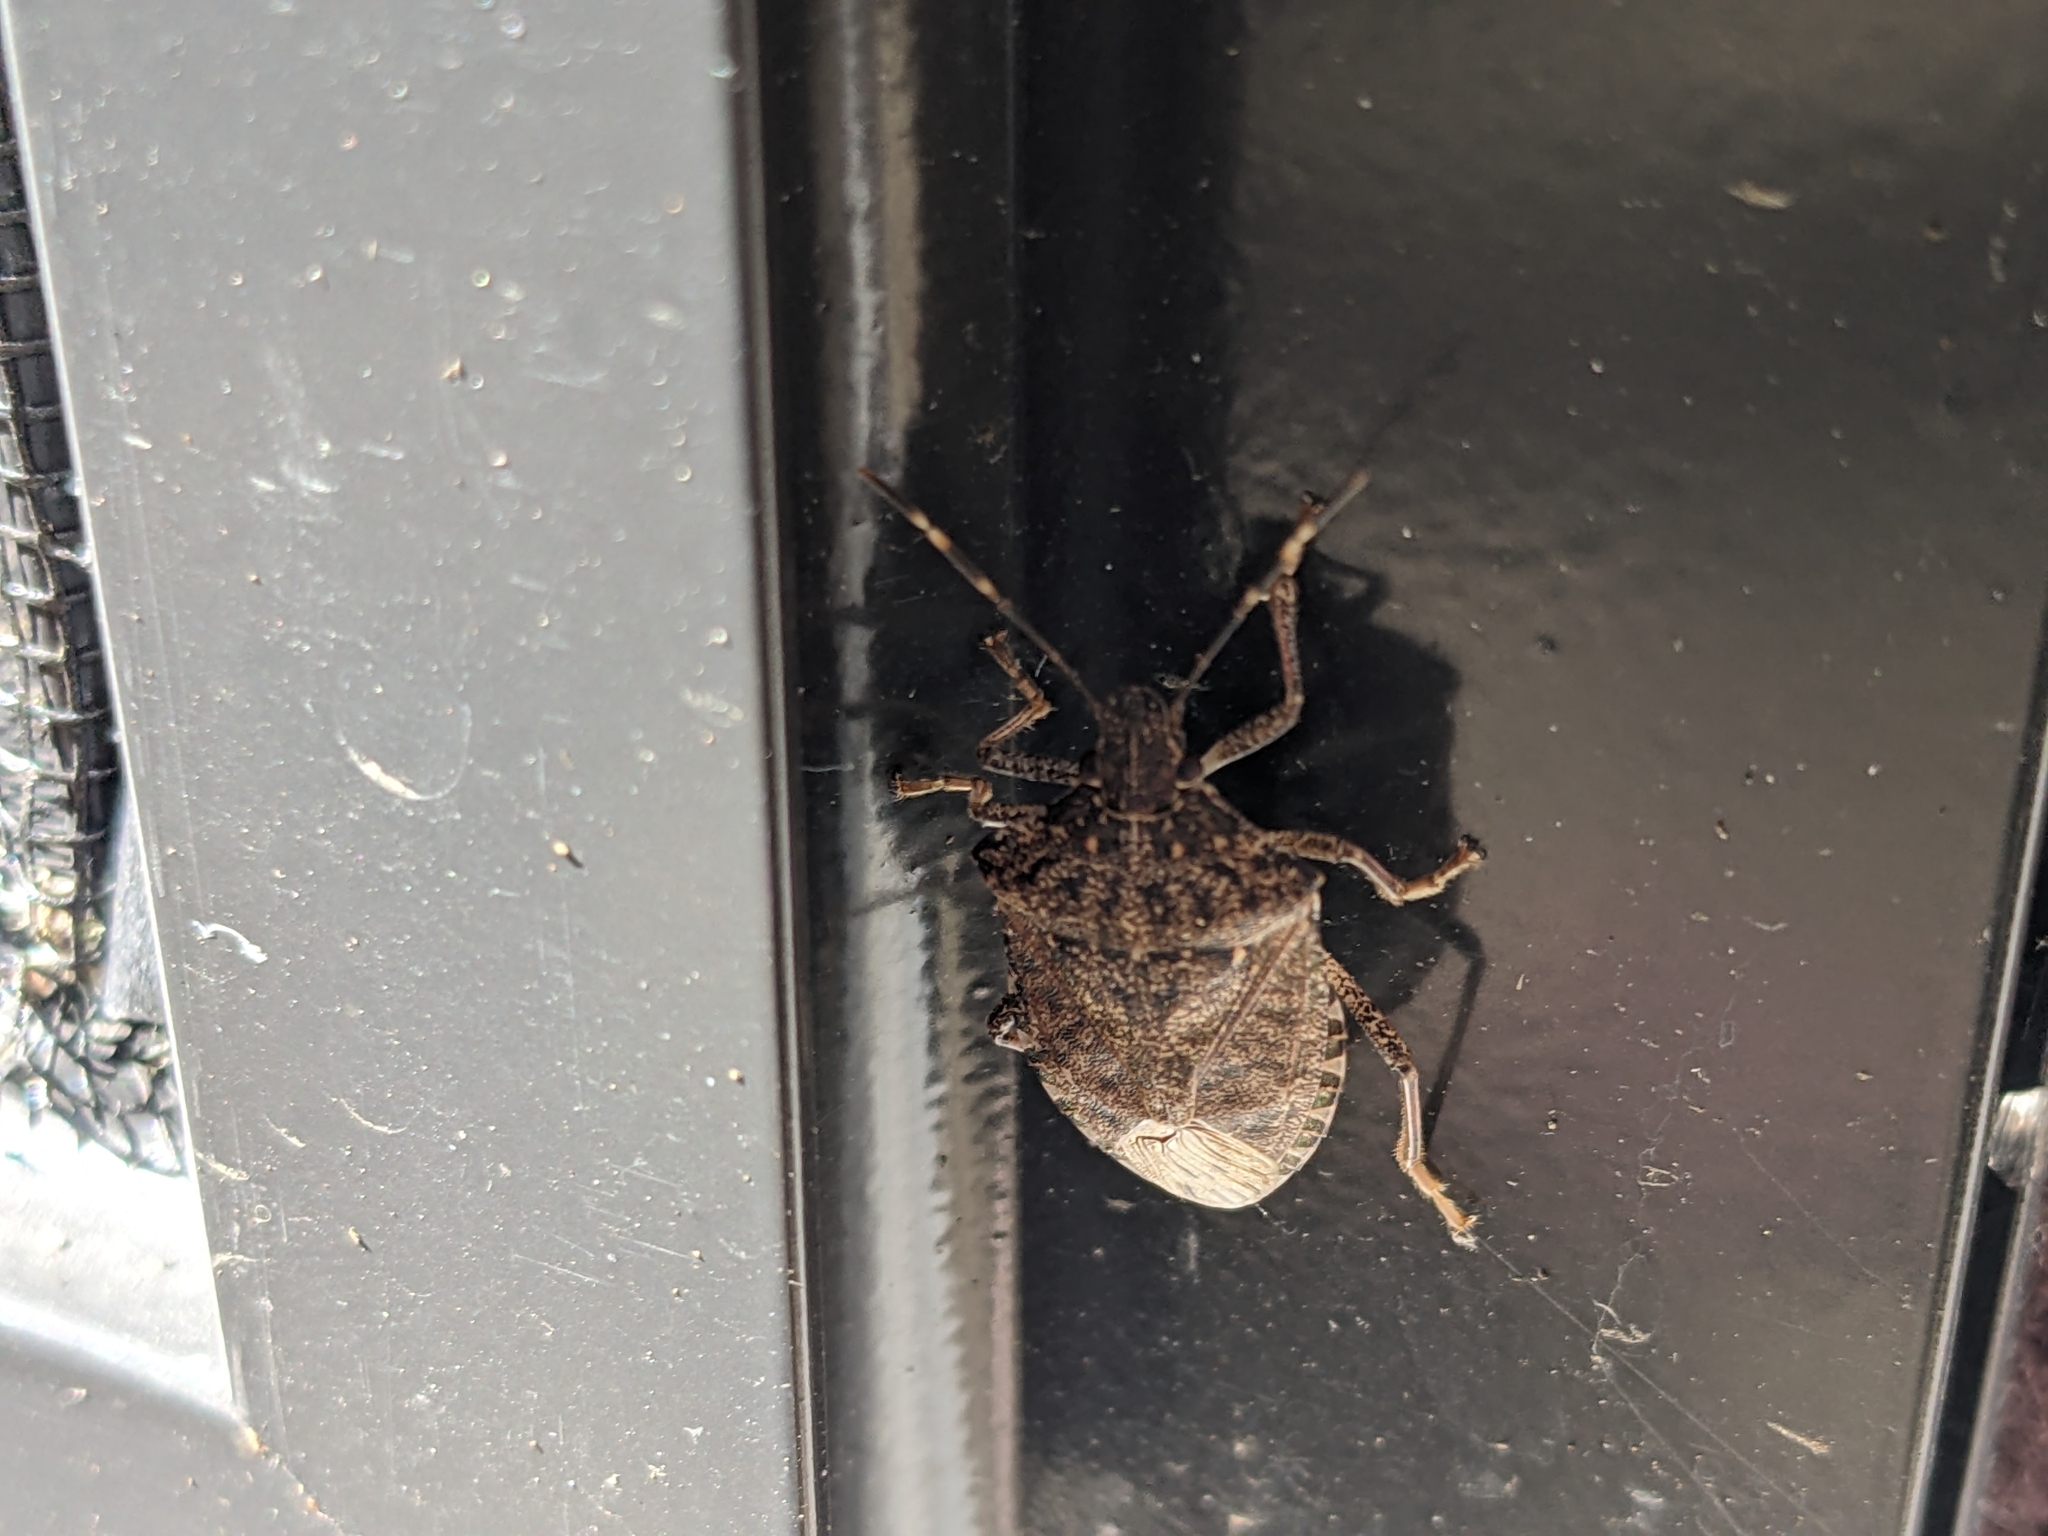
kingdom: Animalia
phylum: Arthropoda
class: Insecta
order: Hemiptera
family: Pentatomidae
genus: Halyomorpha
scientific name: Halyomorpha halys
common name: Brown marmorated stink bug
